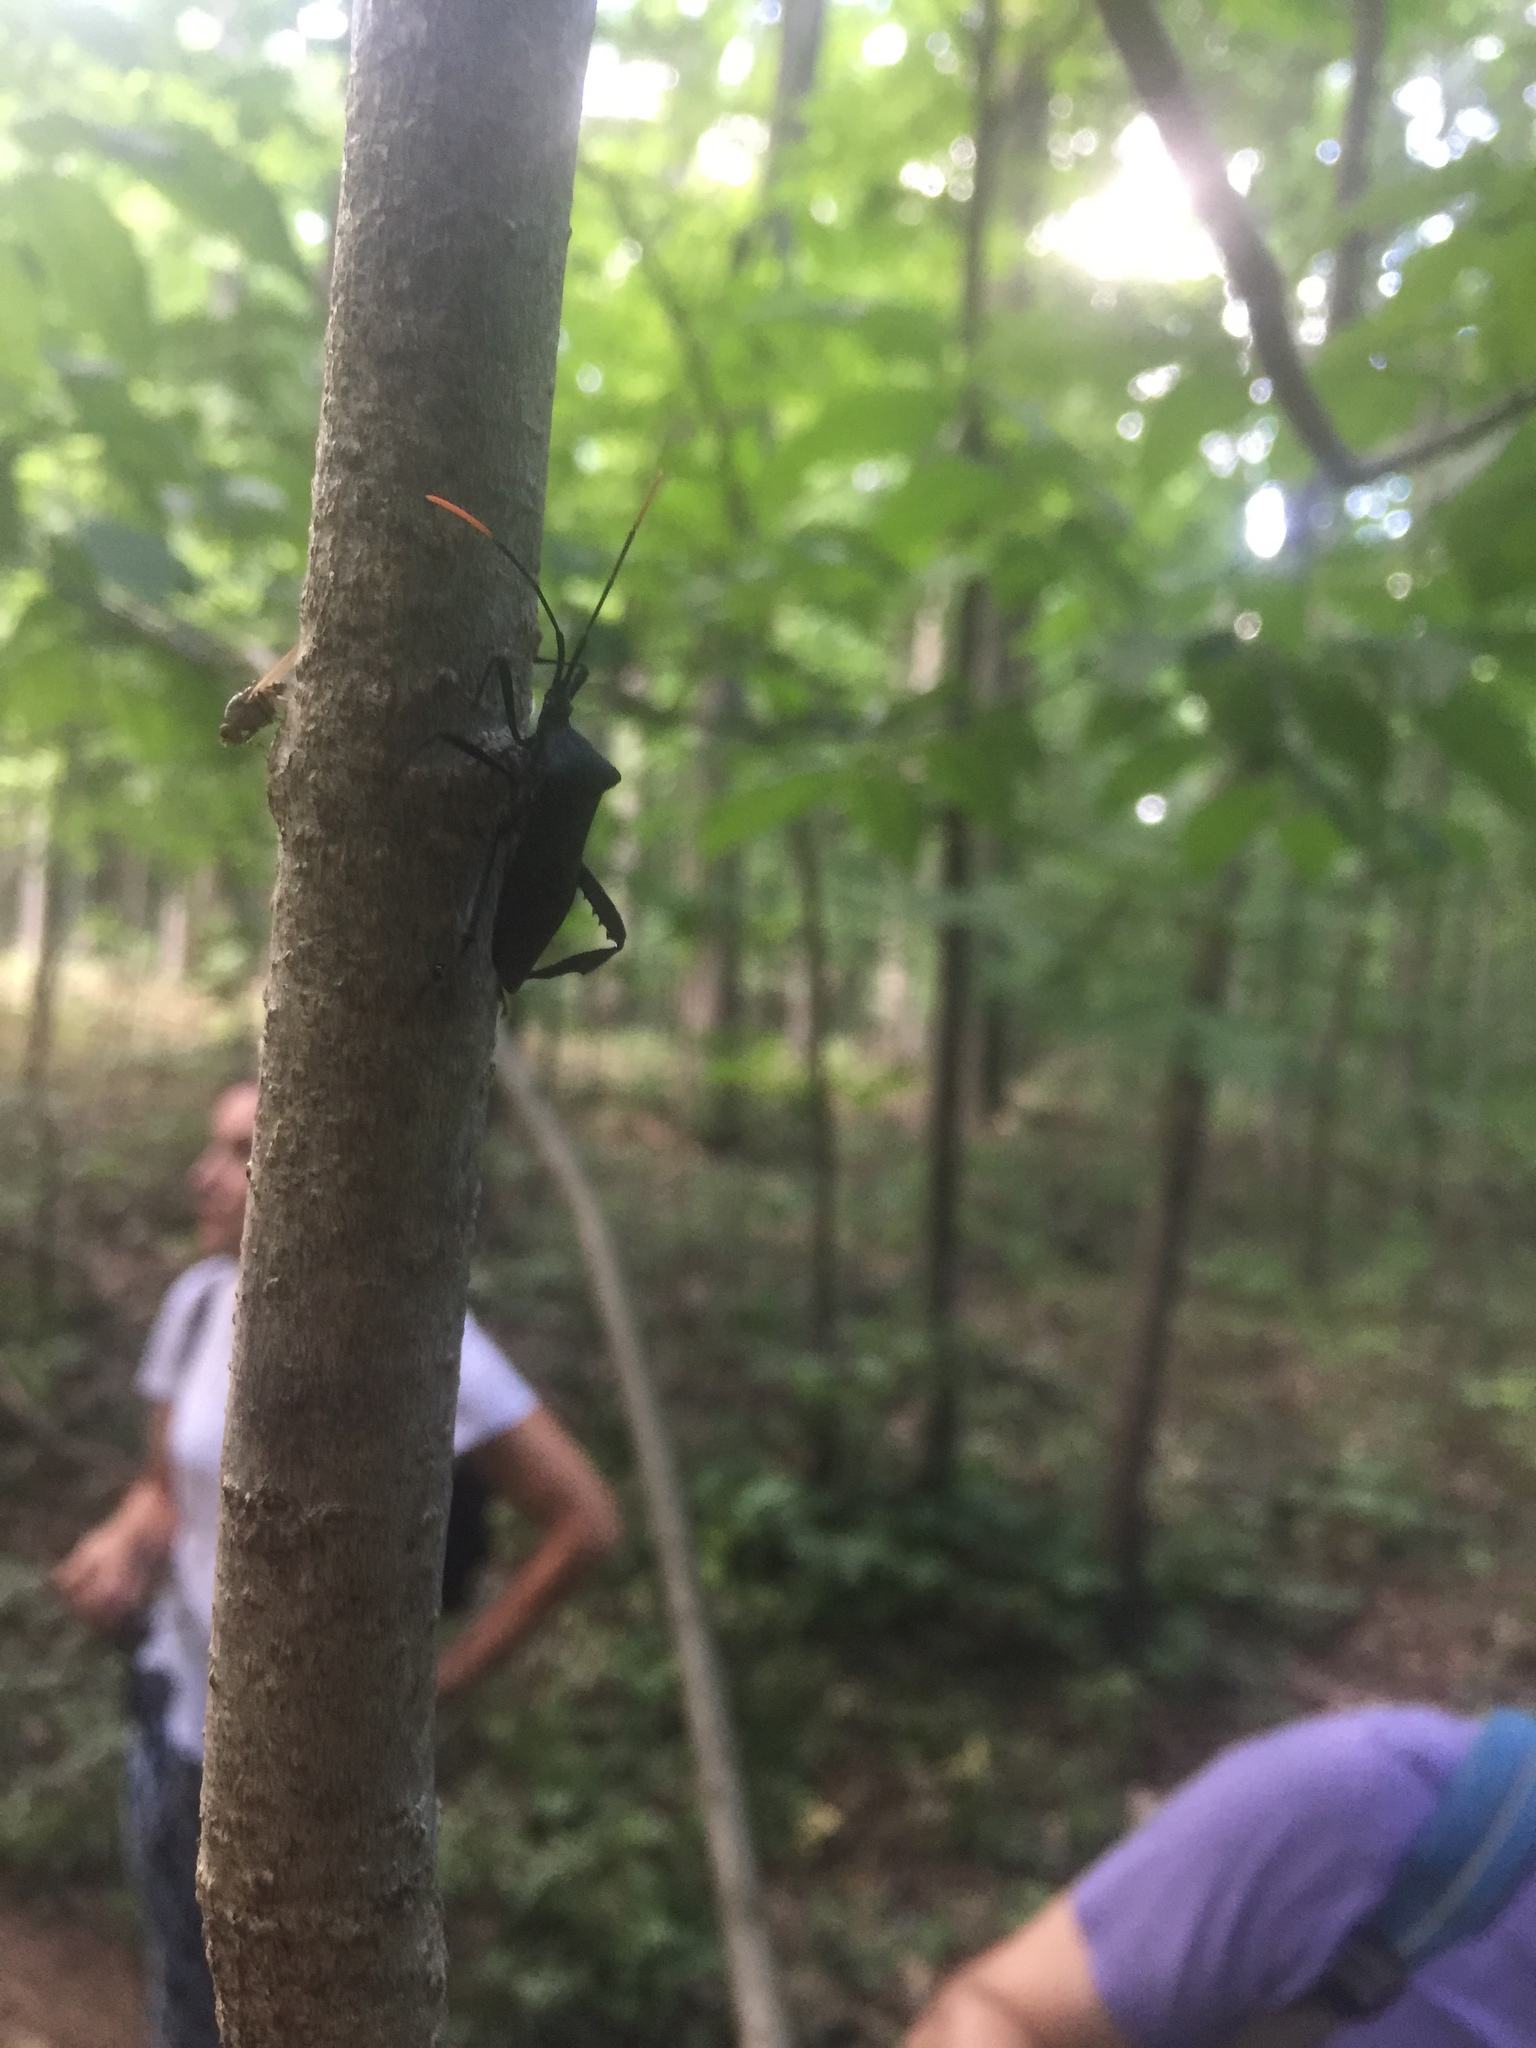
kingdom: Animalia
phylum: Arthropoda
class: Insecta
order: Hemiptera
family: Coreidae
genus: Acanthocephala
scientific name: Acanthocephala terminalis
